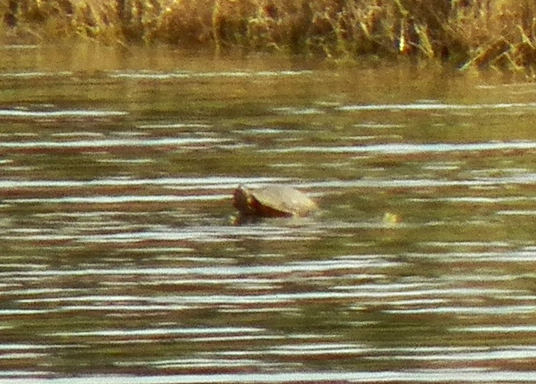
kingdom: Animalia
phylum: Chordata
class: Testudines
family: Emydidae
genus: Trachemys
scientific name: Trachemys scripta
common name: Slider
